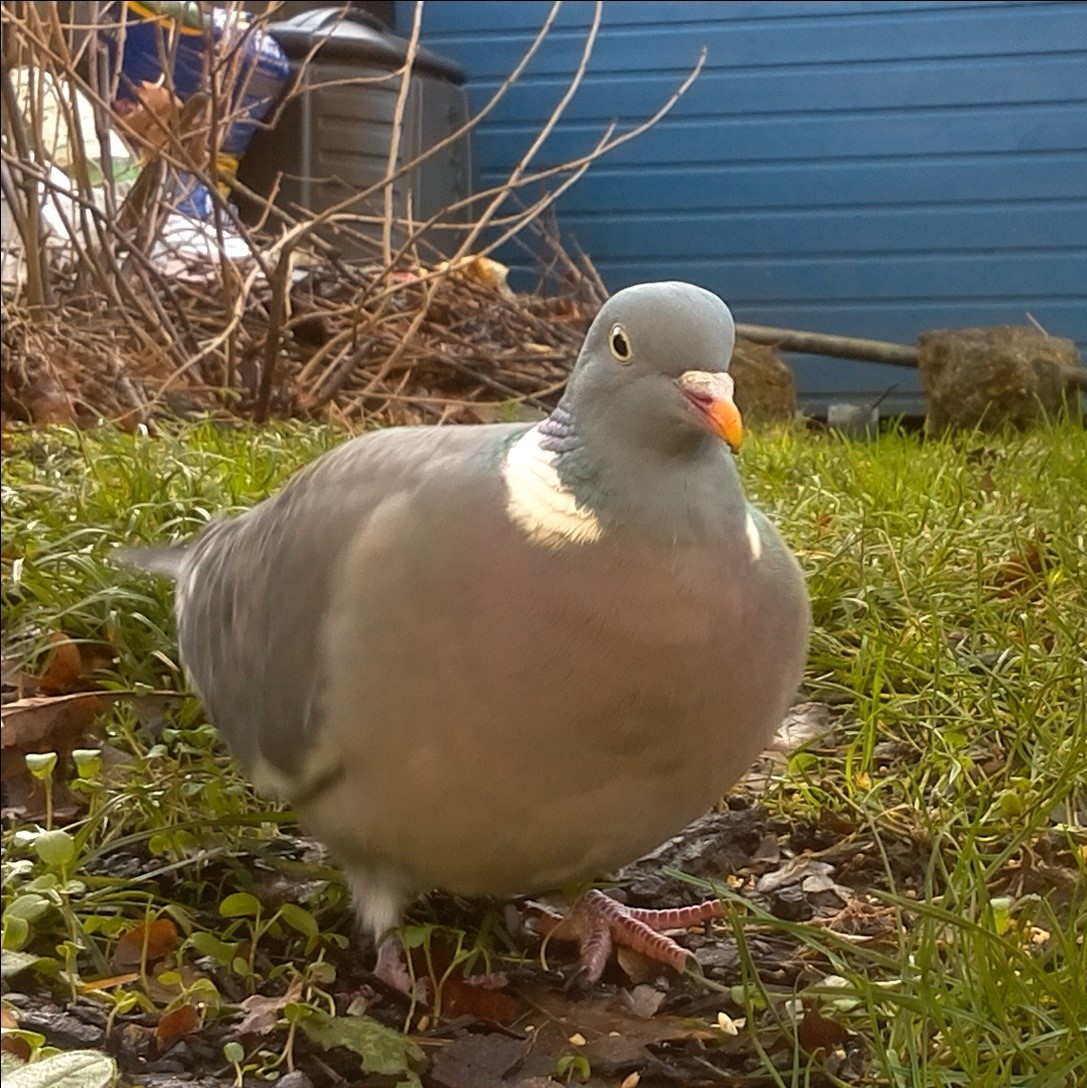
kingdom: Animalia
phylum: Chordata
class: Aves
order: Columbiformes
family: Columbidae
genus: Columba
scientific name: Columba palumbus
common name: Common wood pigeon
